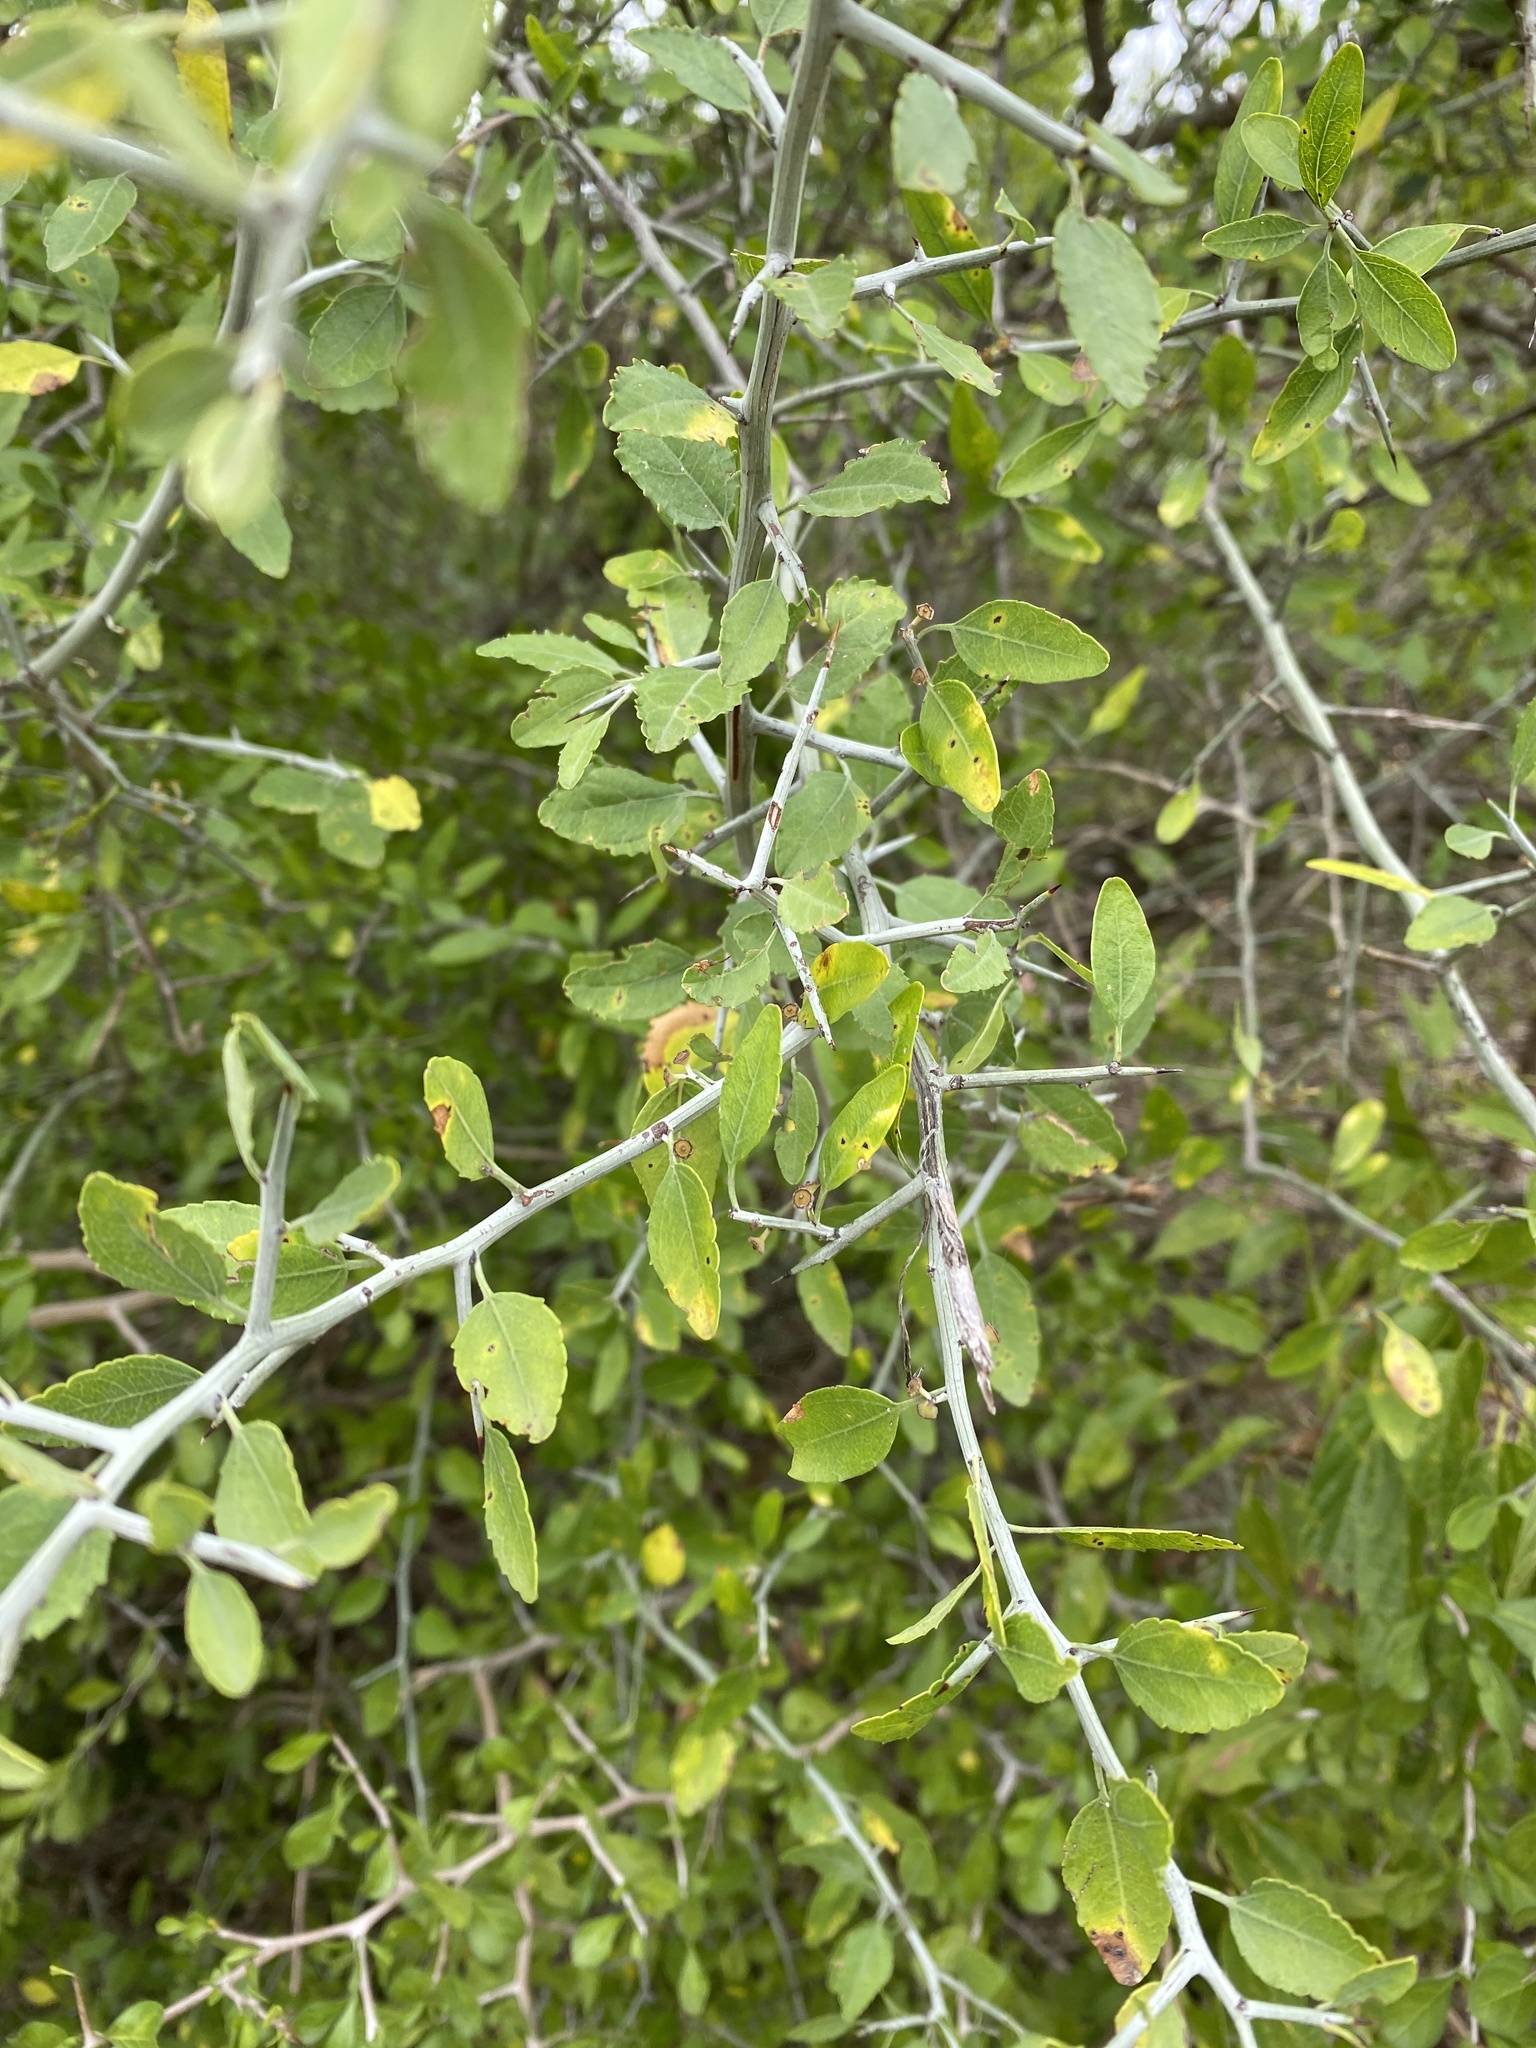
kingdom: Plantae
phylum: Tracheophyta
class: Magnoliopsida
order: Rosales
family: Rhamnaceae
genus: Sarcomphalus
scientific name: Sarcomphalus obtusifolius
